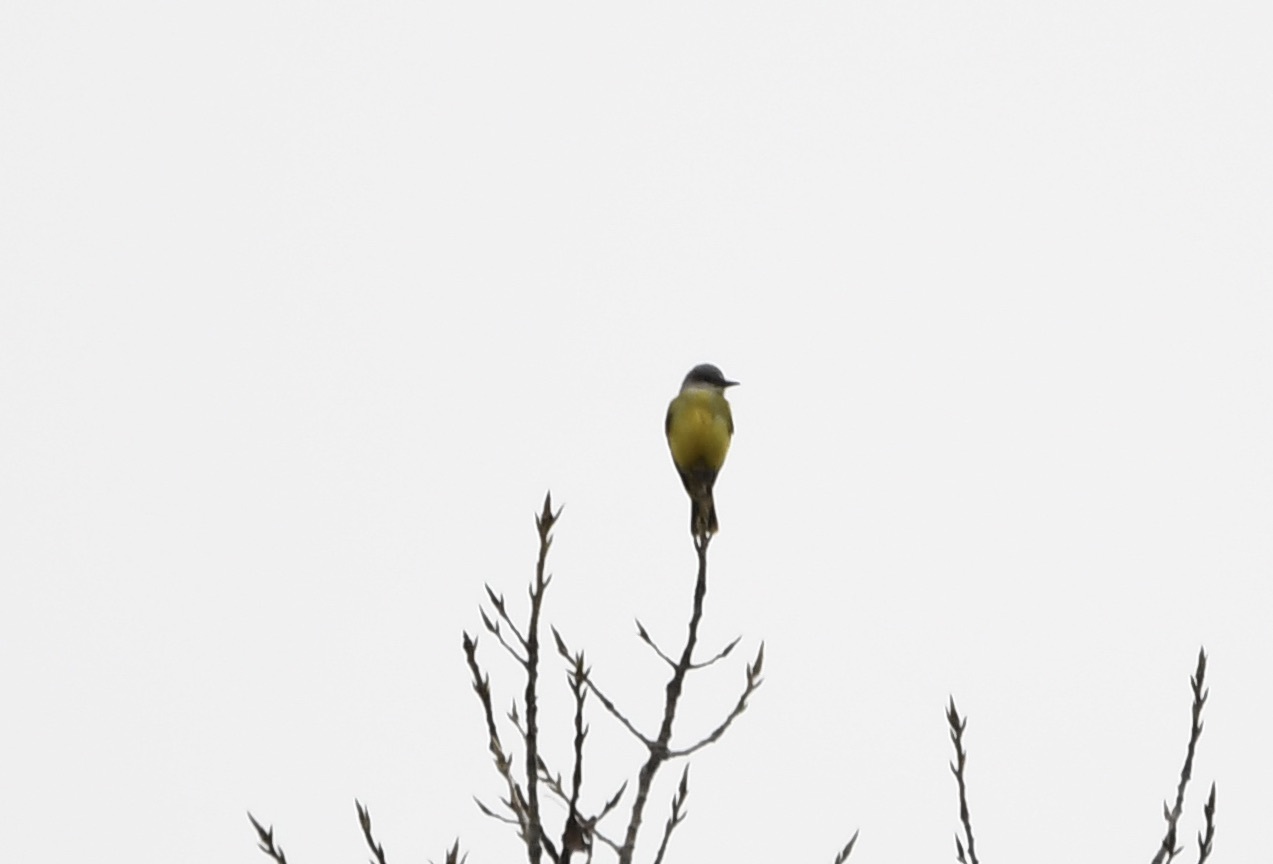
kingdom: Animalia
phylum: Chordata
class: Aves
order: Passeriformes
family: Tyrannidae
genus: Tyrannus
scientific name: Tyrannus melancholicus
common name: Tropical kingbird
